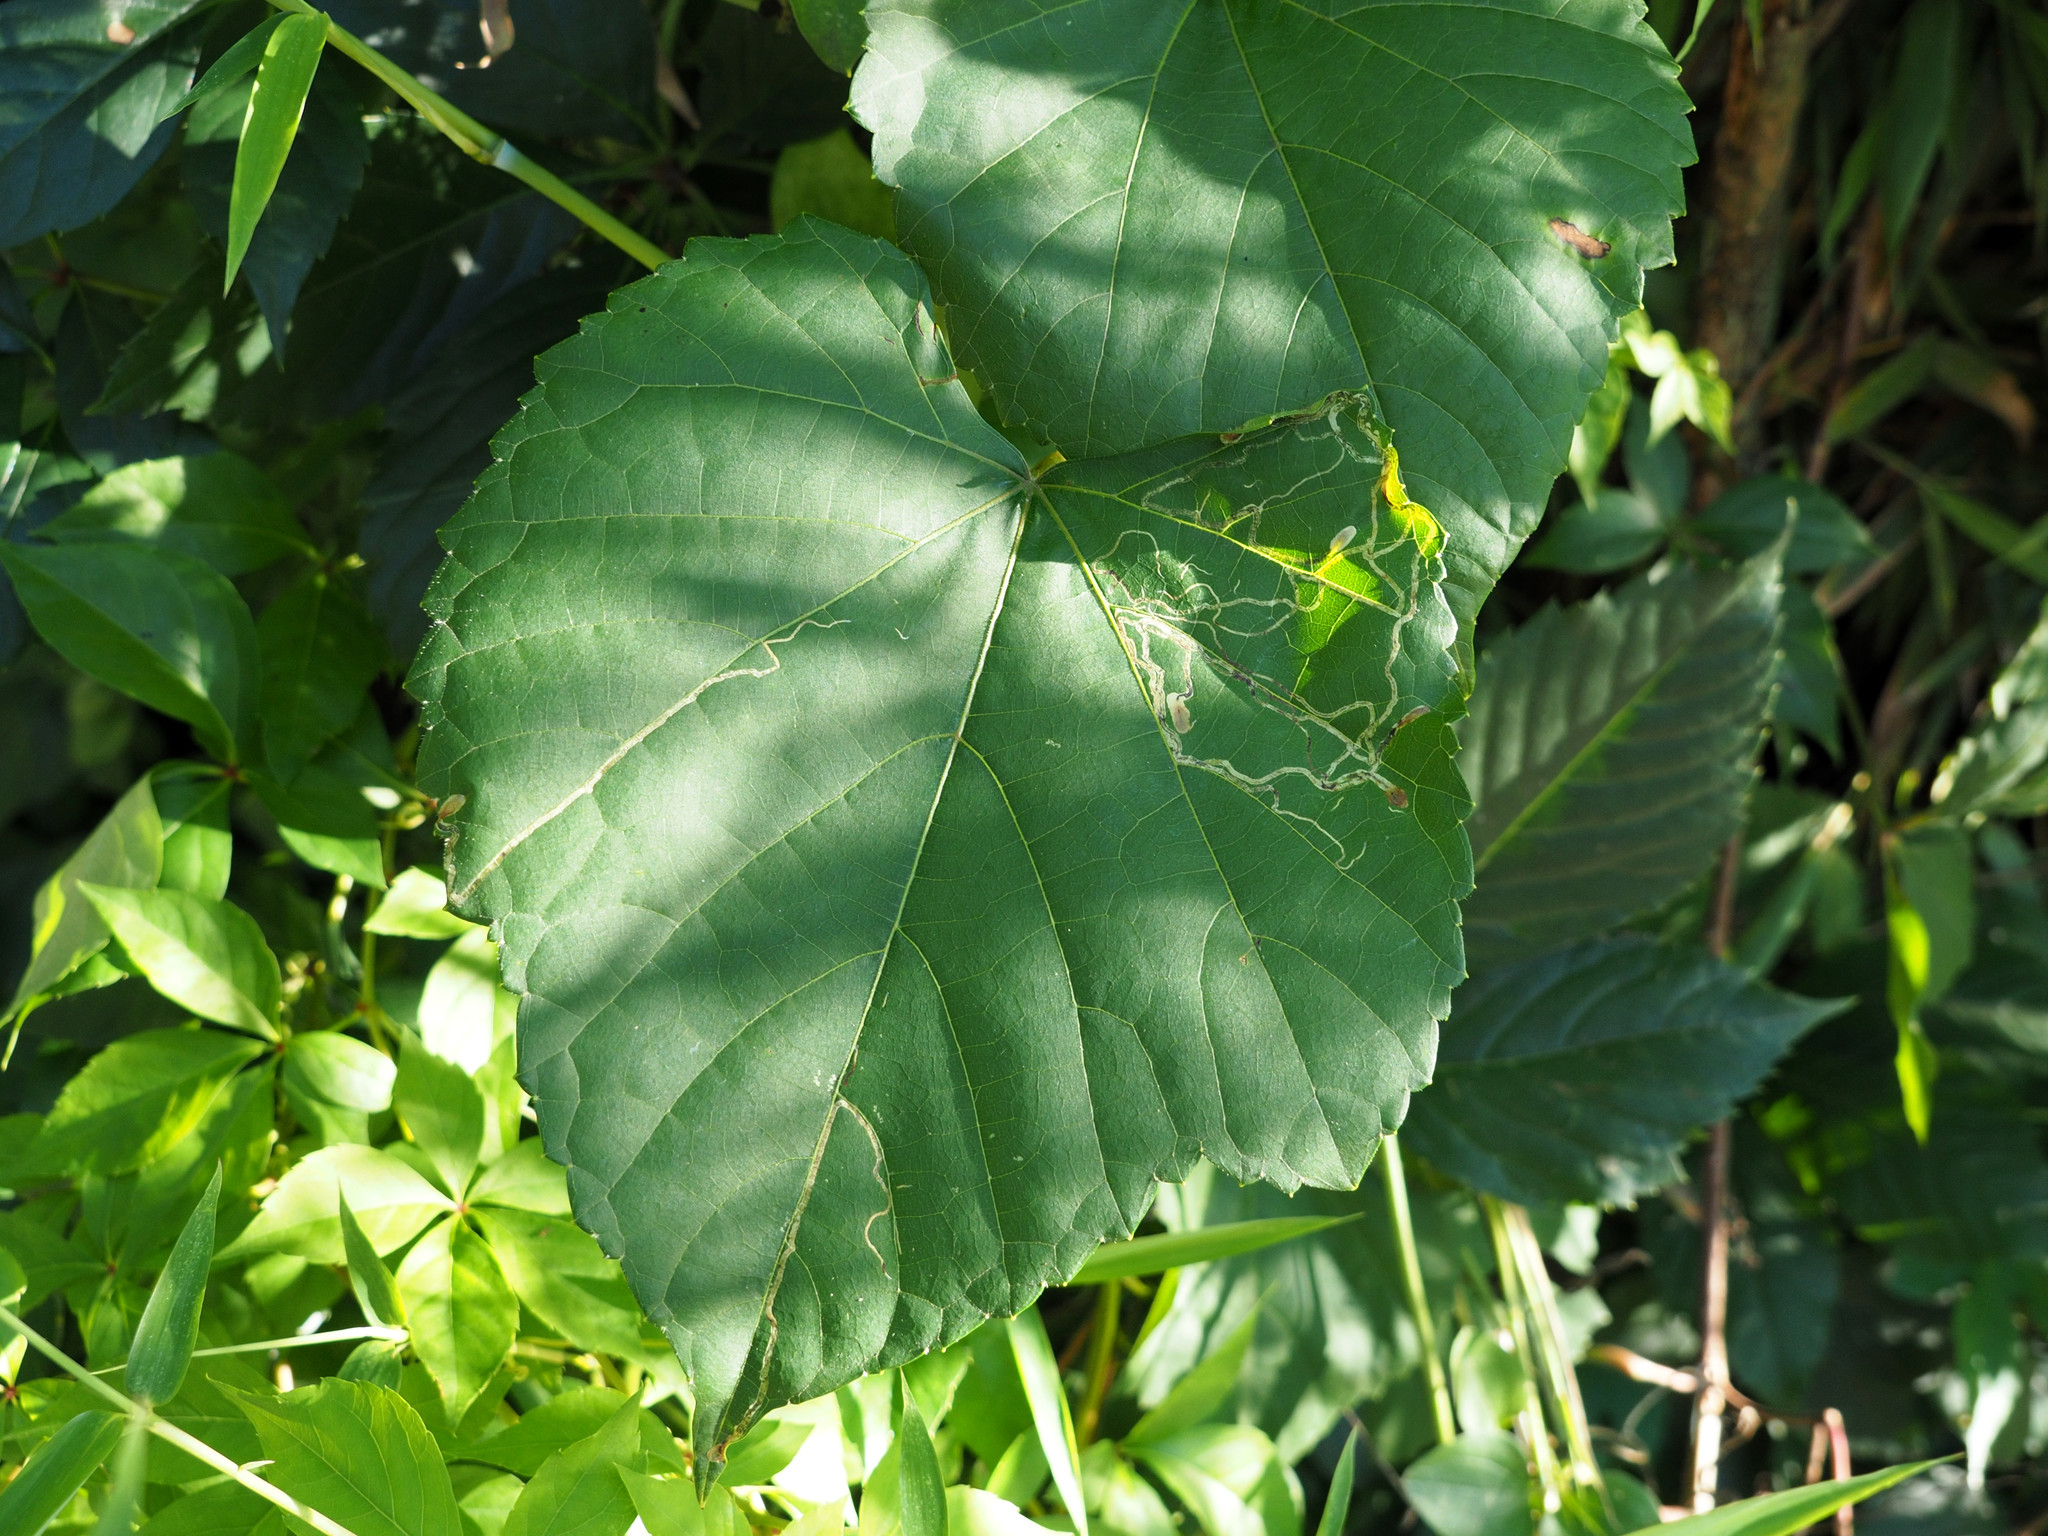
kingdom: Animalia
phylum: Arthropoda
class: Insecta
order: Lepidoptera
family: Gracillariidae
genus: Phyllocnistis
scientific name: Phyllocnistis vitifoliella
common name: Grape leaf-miner moth
